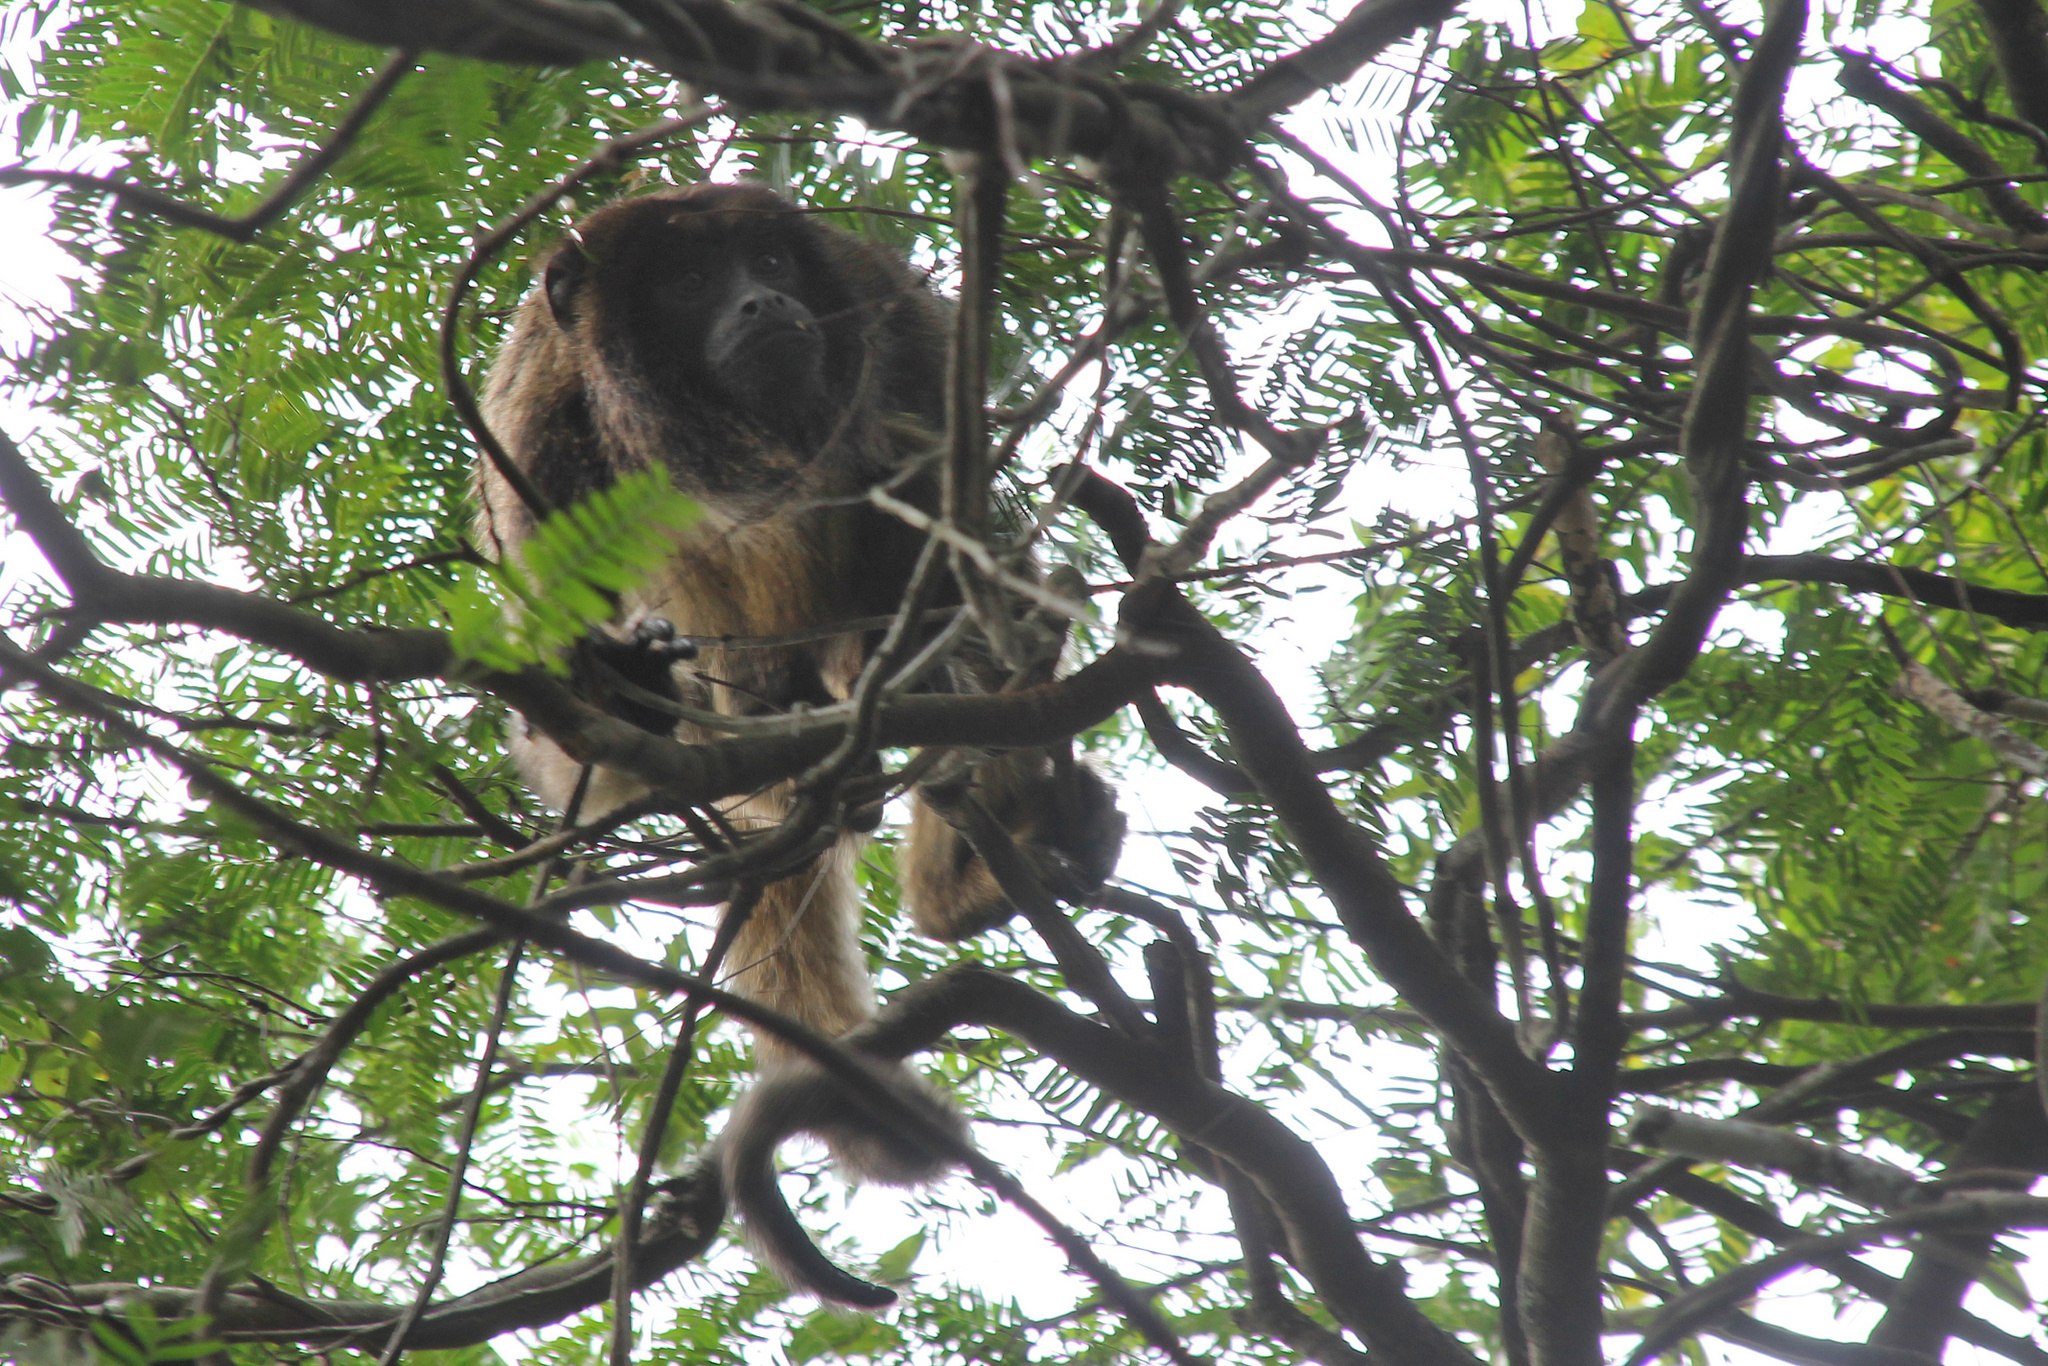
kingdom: Animalia
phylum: Chordata
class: Mammalia
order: Primates
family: Atelidae
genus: Alouatta
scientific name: Alouatta caraya
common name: Black howler
